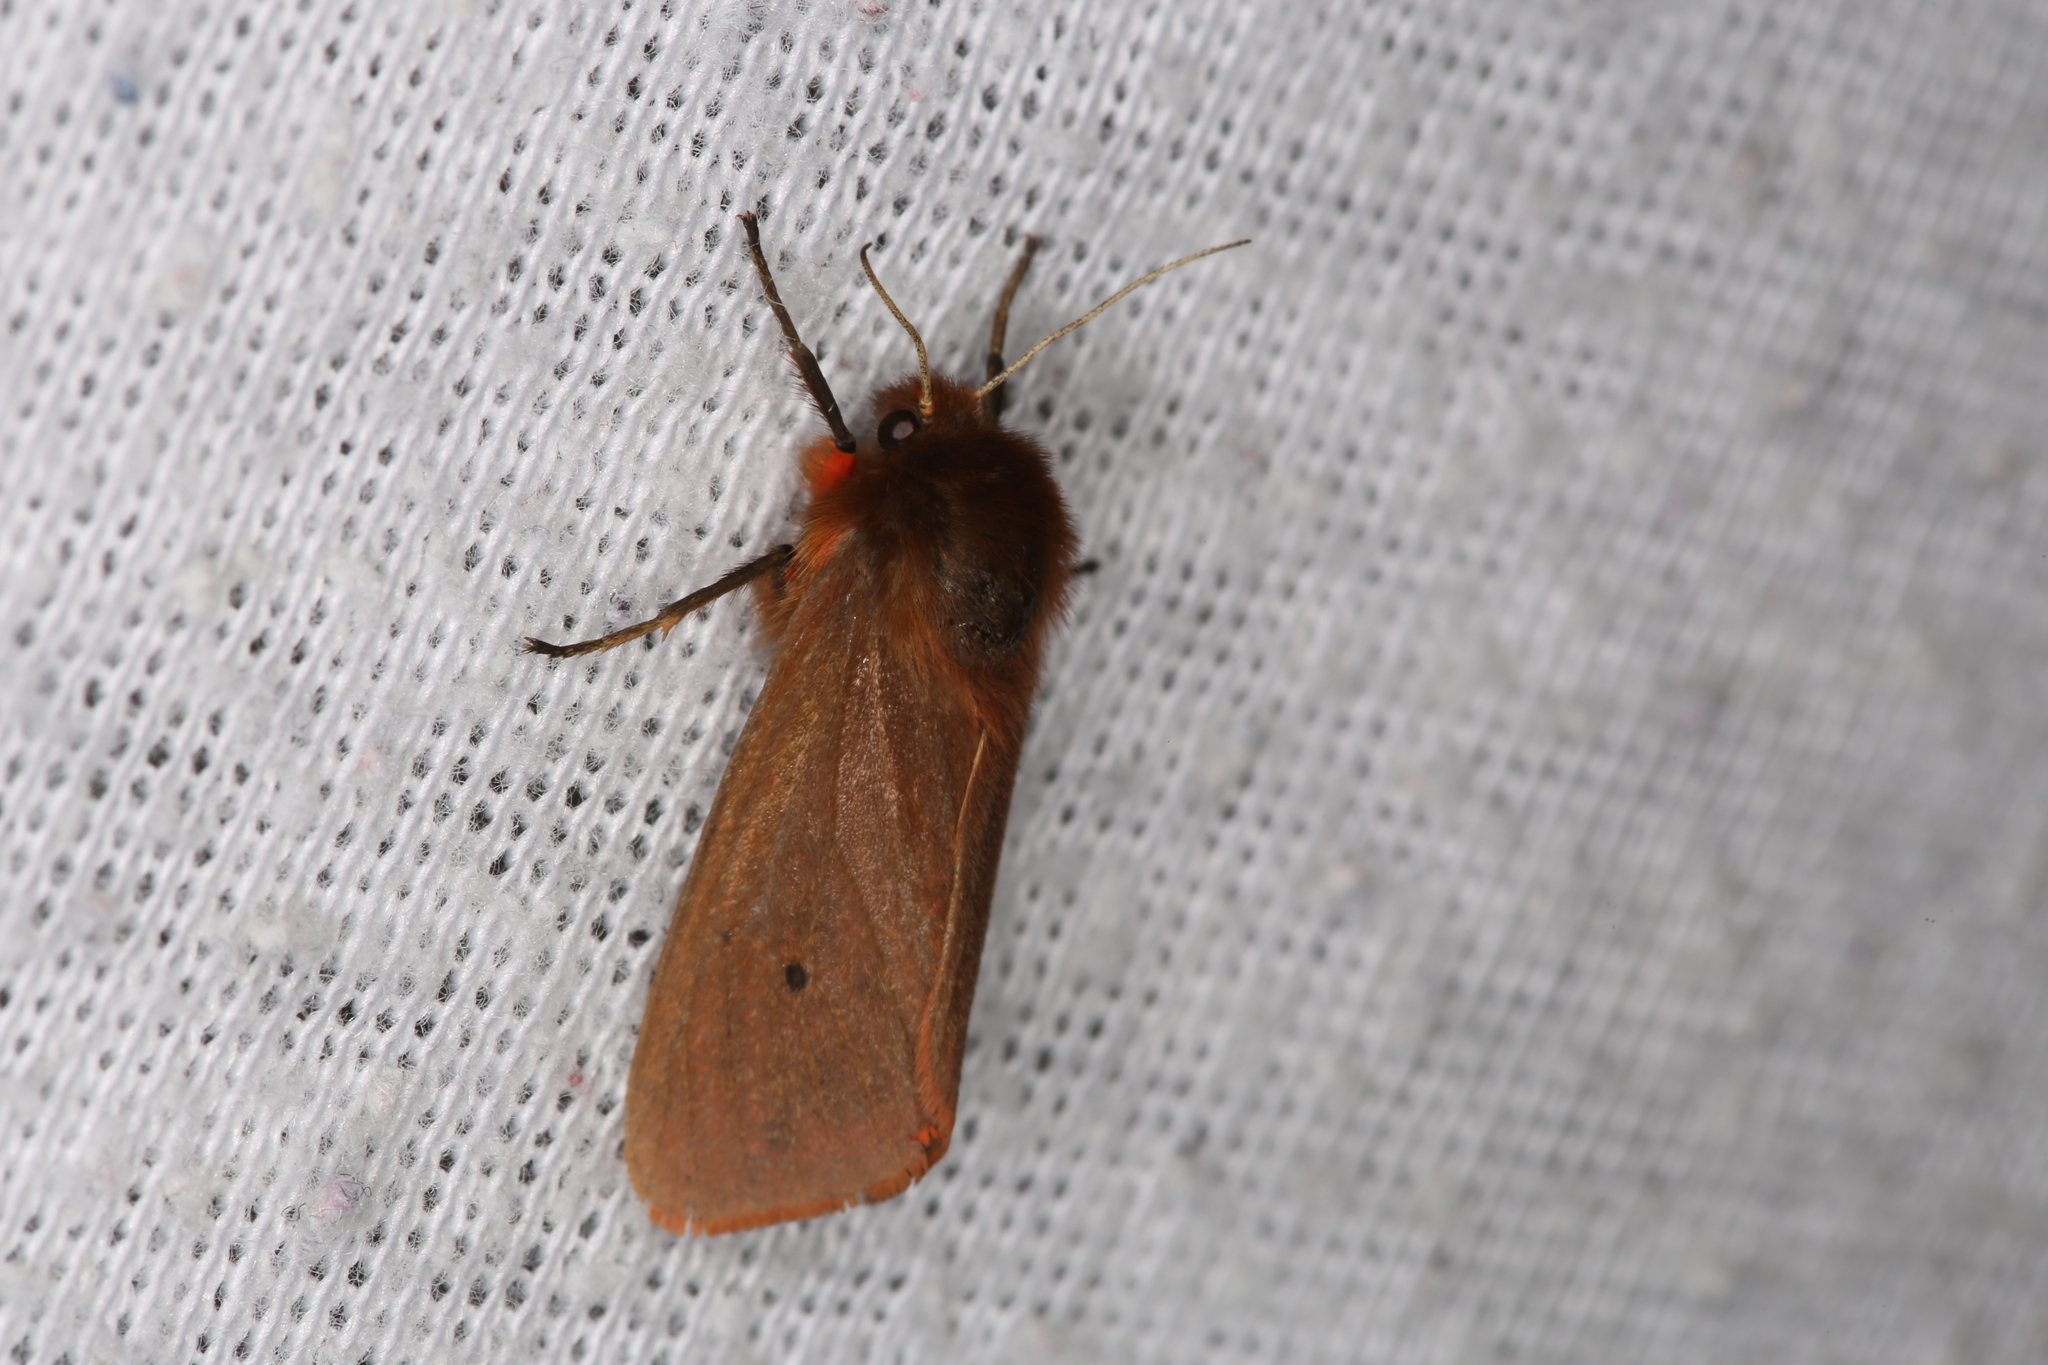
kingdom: Animalia
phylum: Arthropoda
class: Insecta
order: Lepidoptera
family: Erebidae
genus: Phragmatobia
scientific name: Phragmatobia fuliginosa
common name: Ruby tiger
